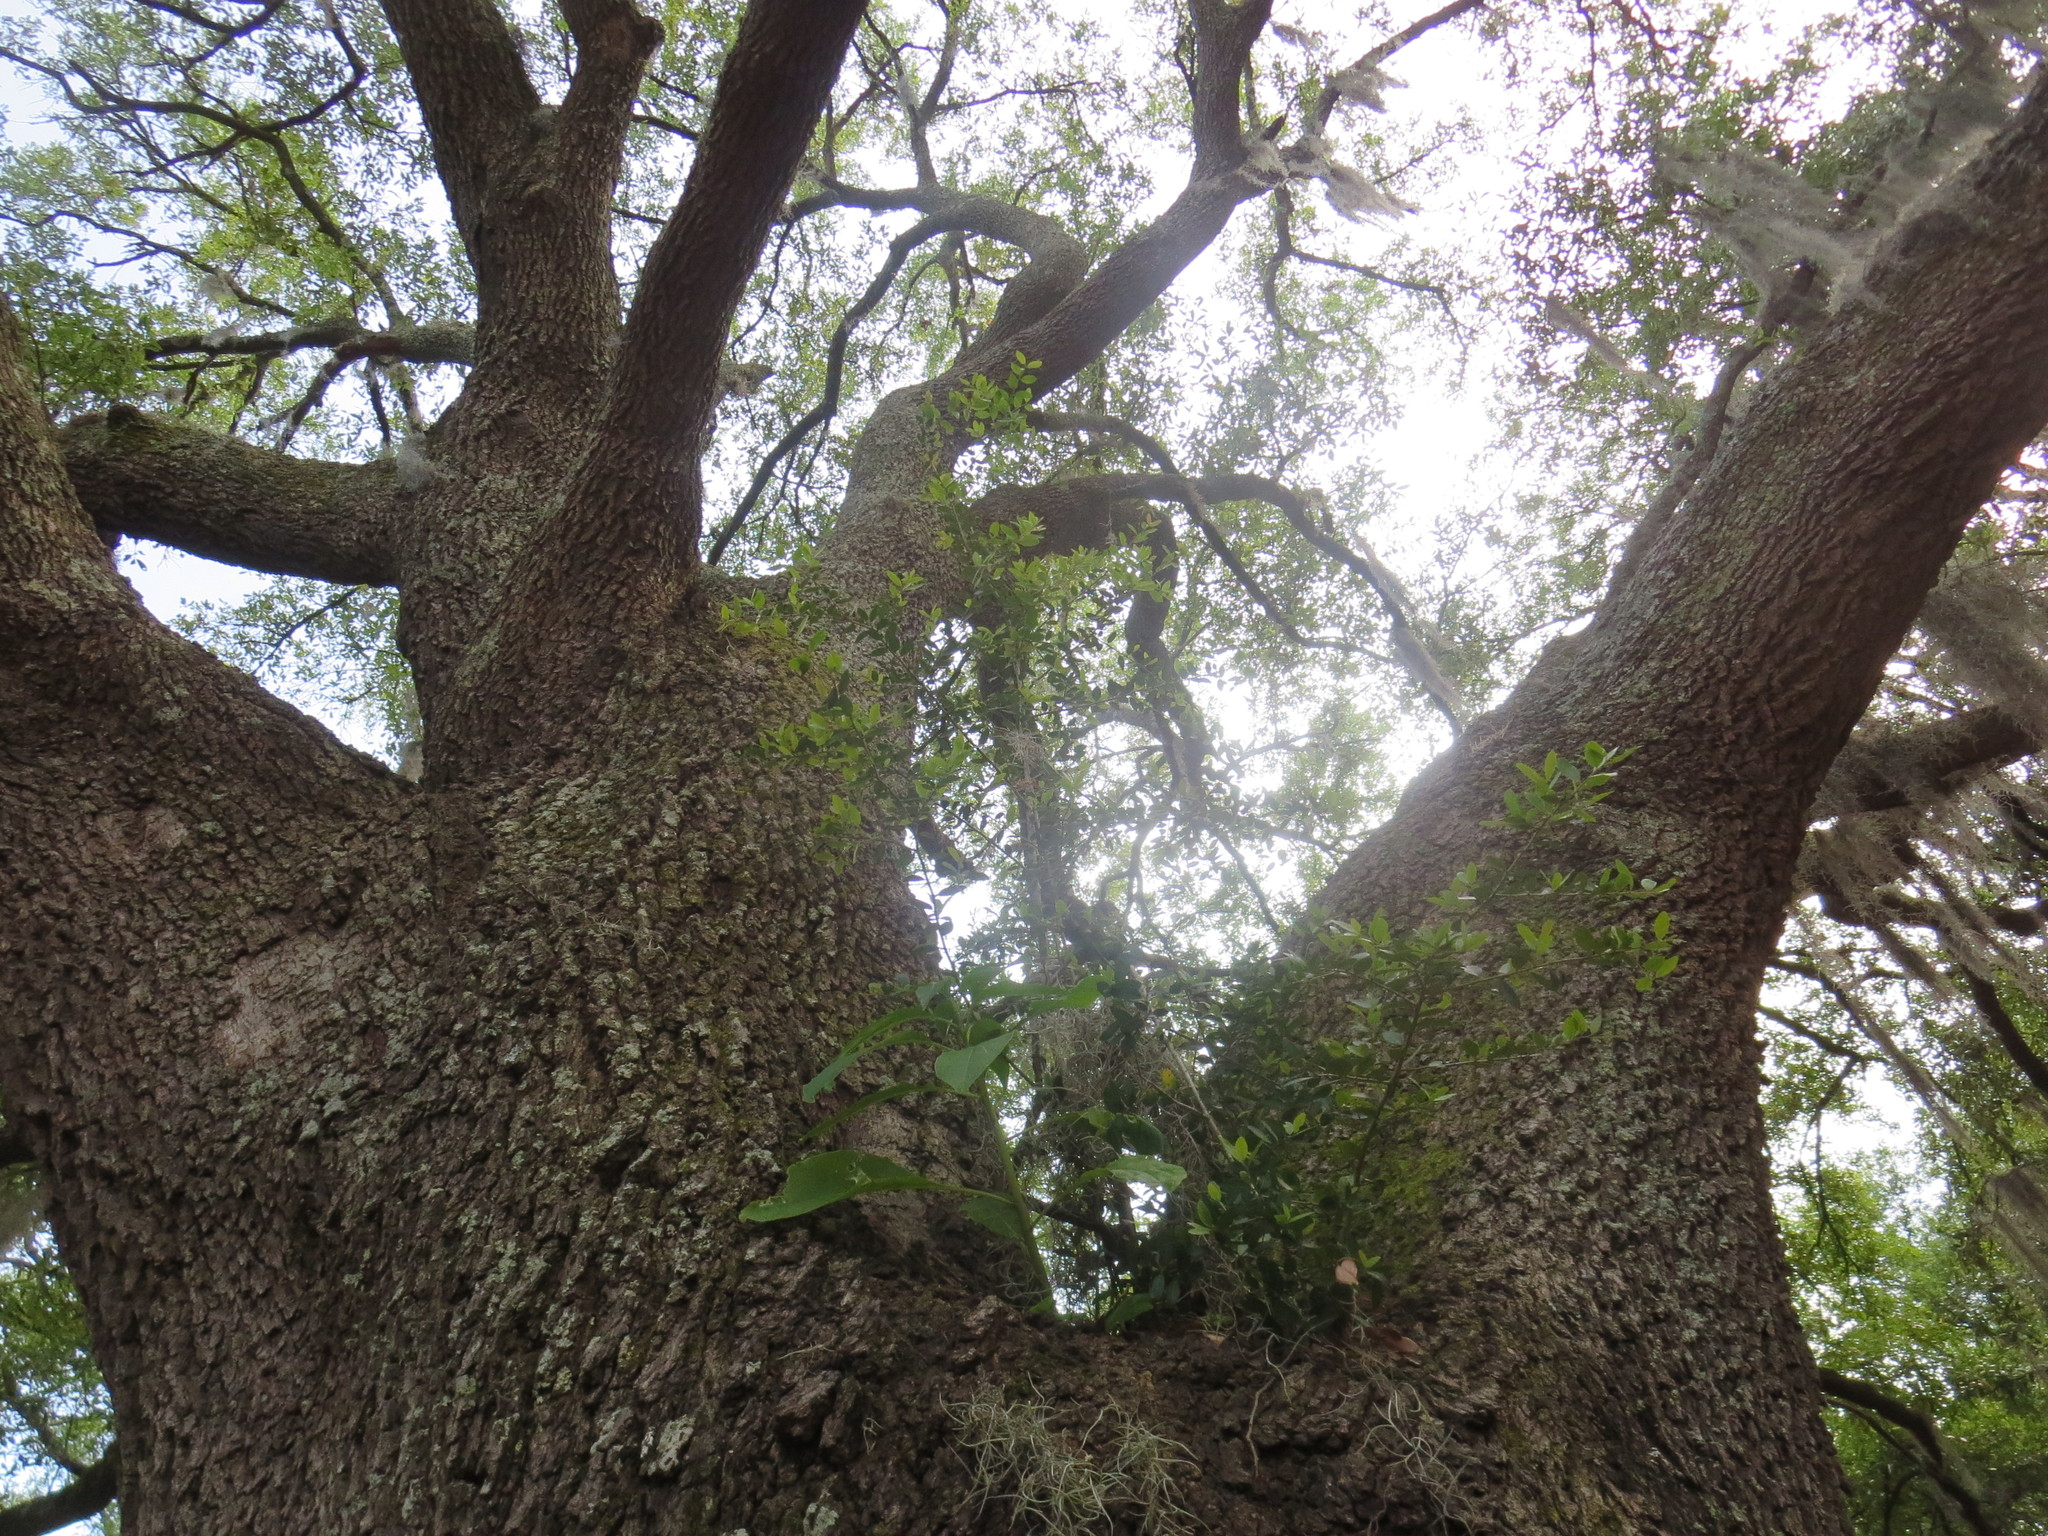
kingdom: Plantae
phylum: Tracheophyta
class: Magnoliopsida
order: Aquifoliales
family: Aquifoliaceae
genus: Ilex
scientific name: Ilex vomitoria
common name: Yaupon holly
